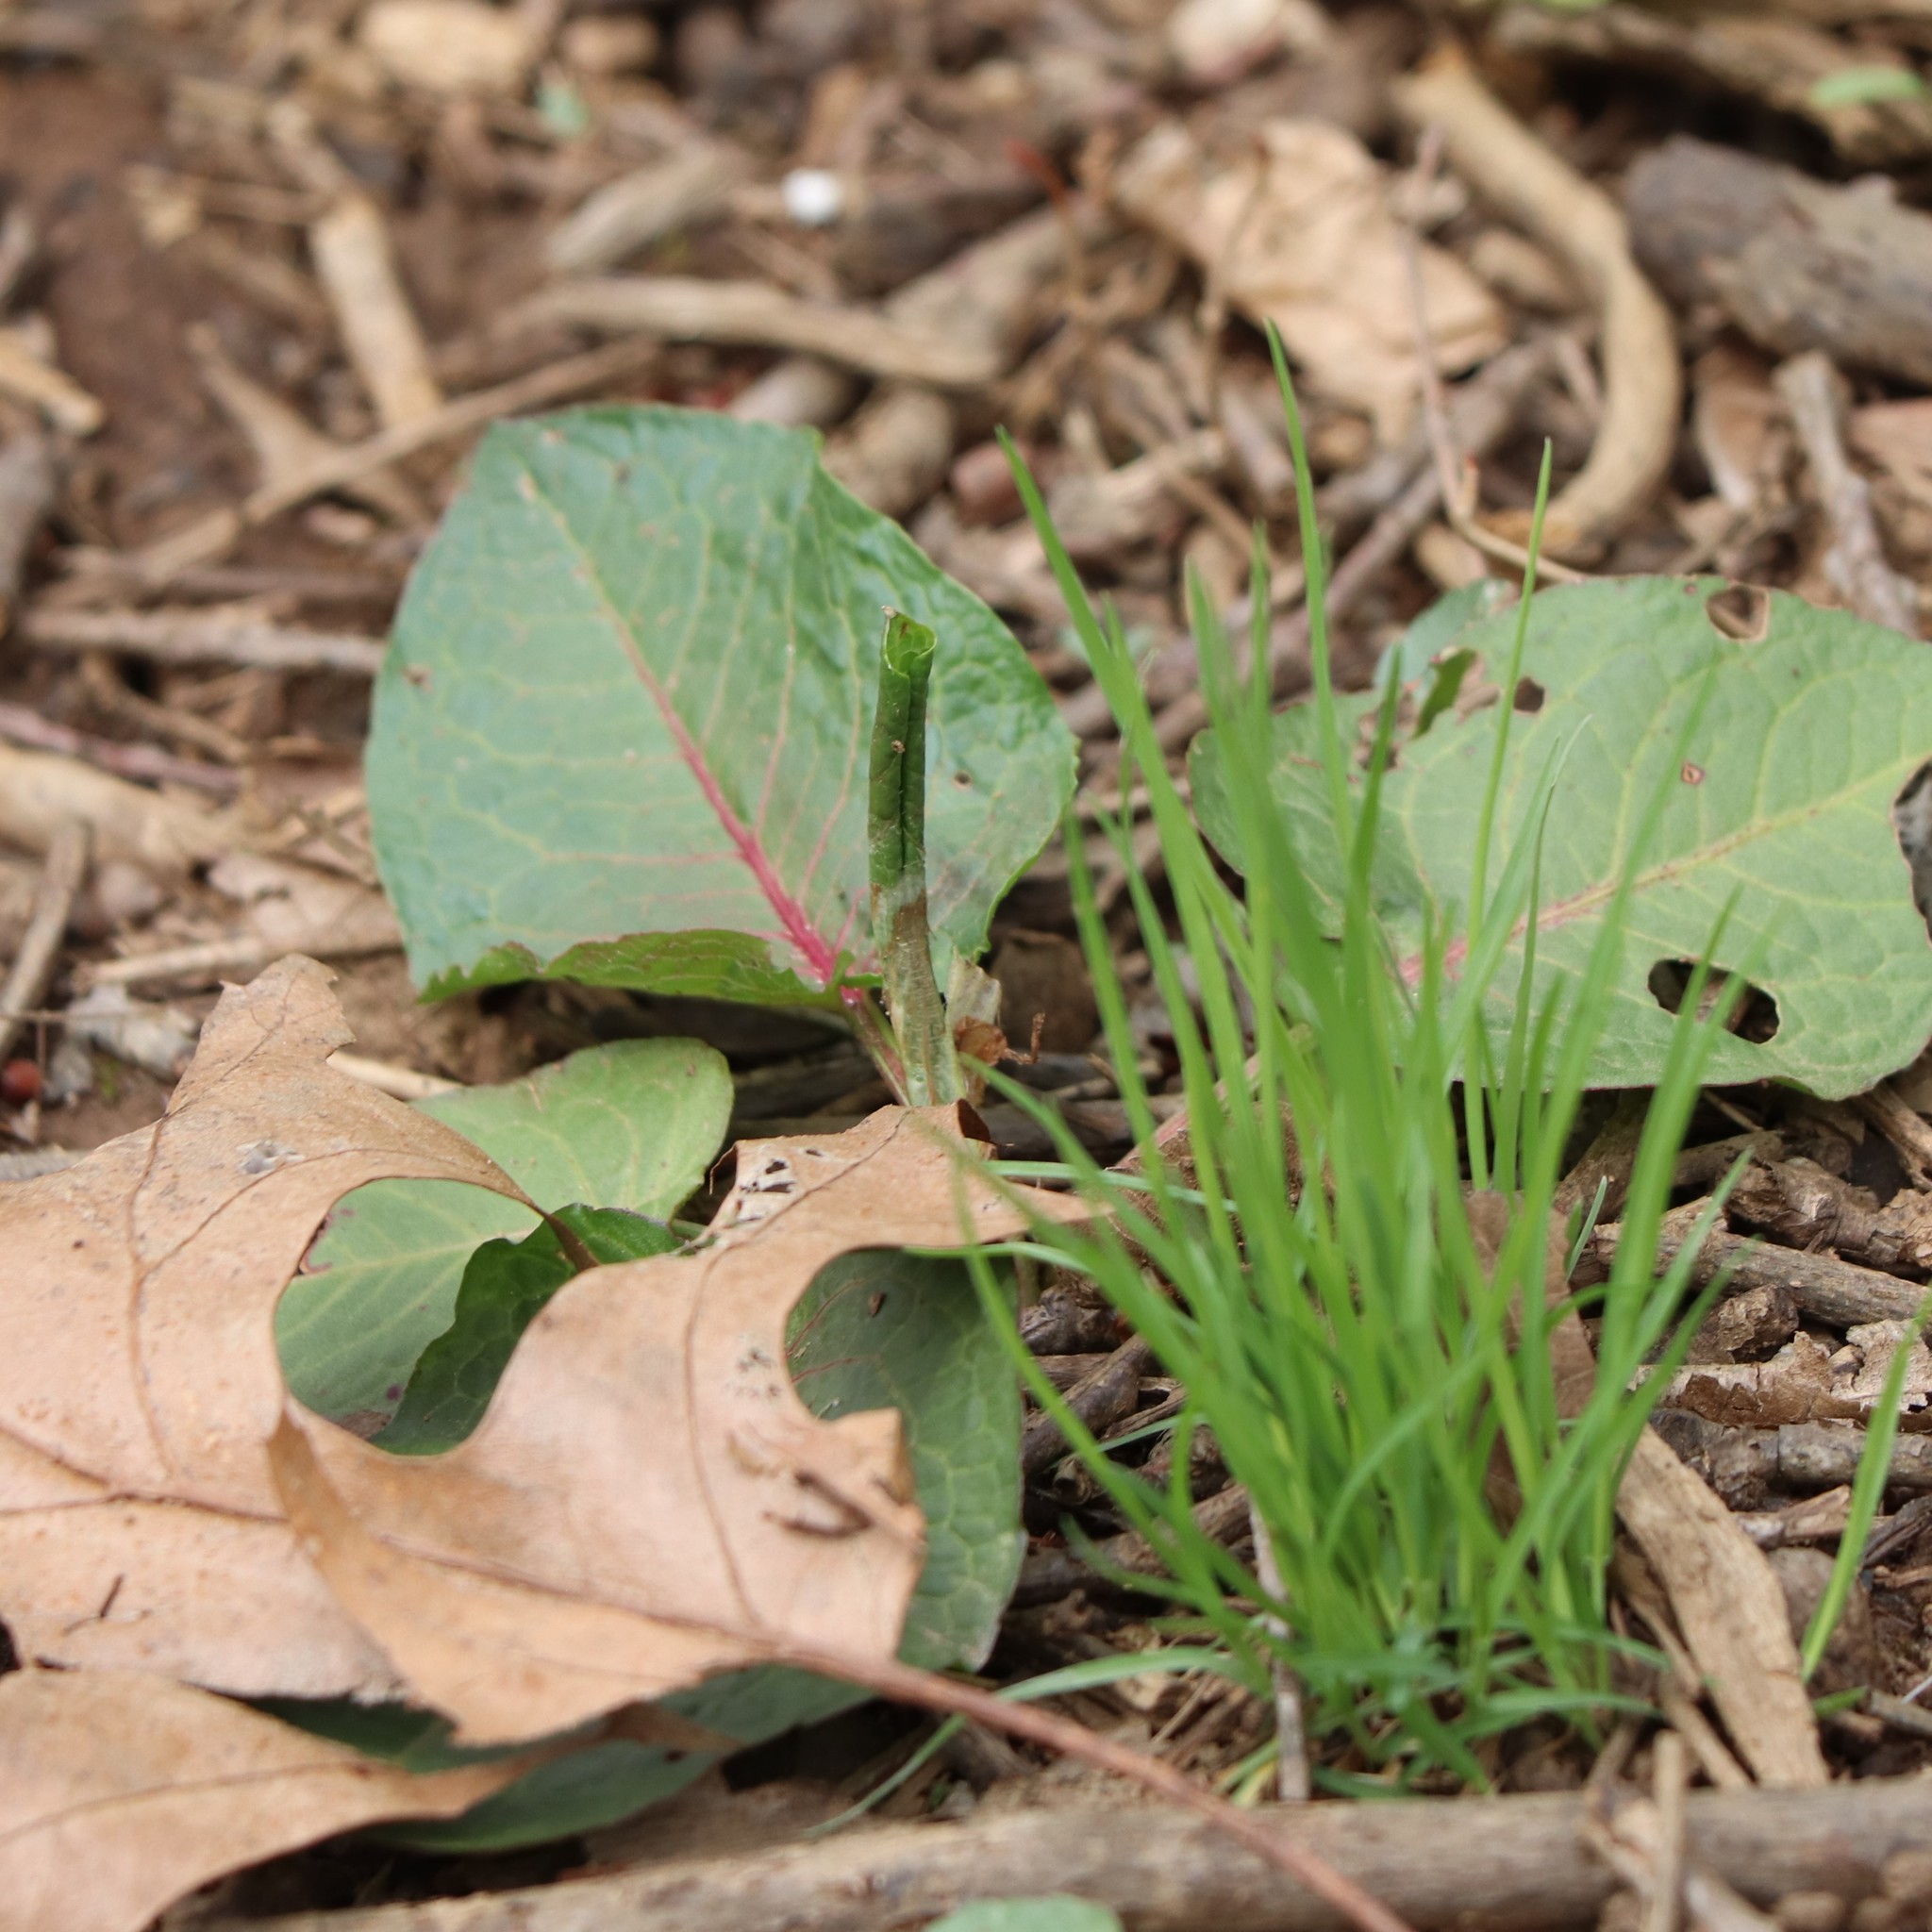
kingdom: Plantae
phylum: Tracheophyta
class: Magnoliopsida
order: Caryophyllales
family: Polygonaceae
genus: Rumex
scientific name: Rumex obtusifolius
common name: Bitter dock
